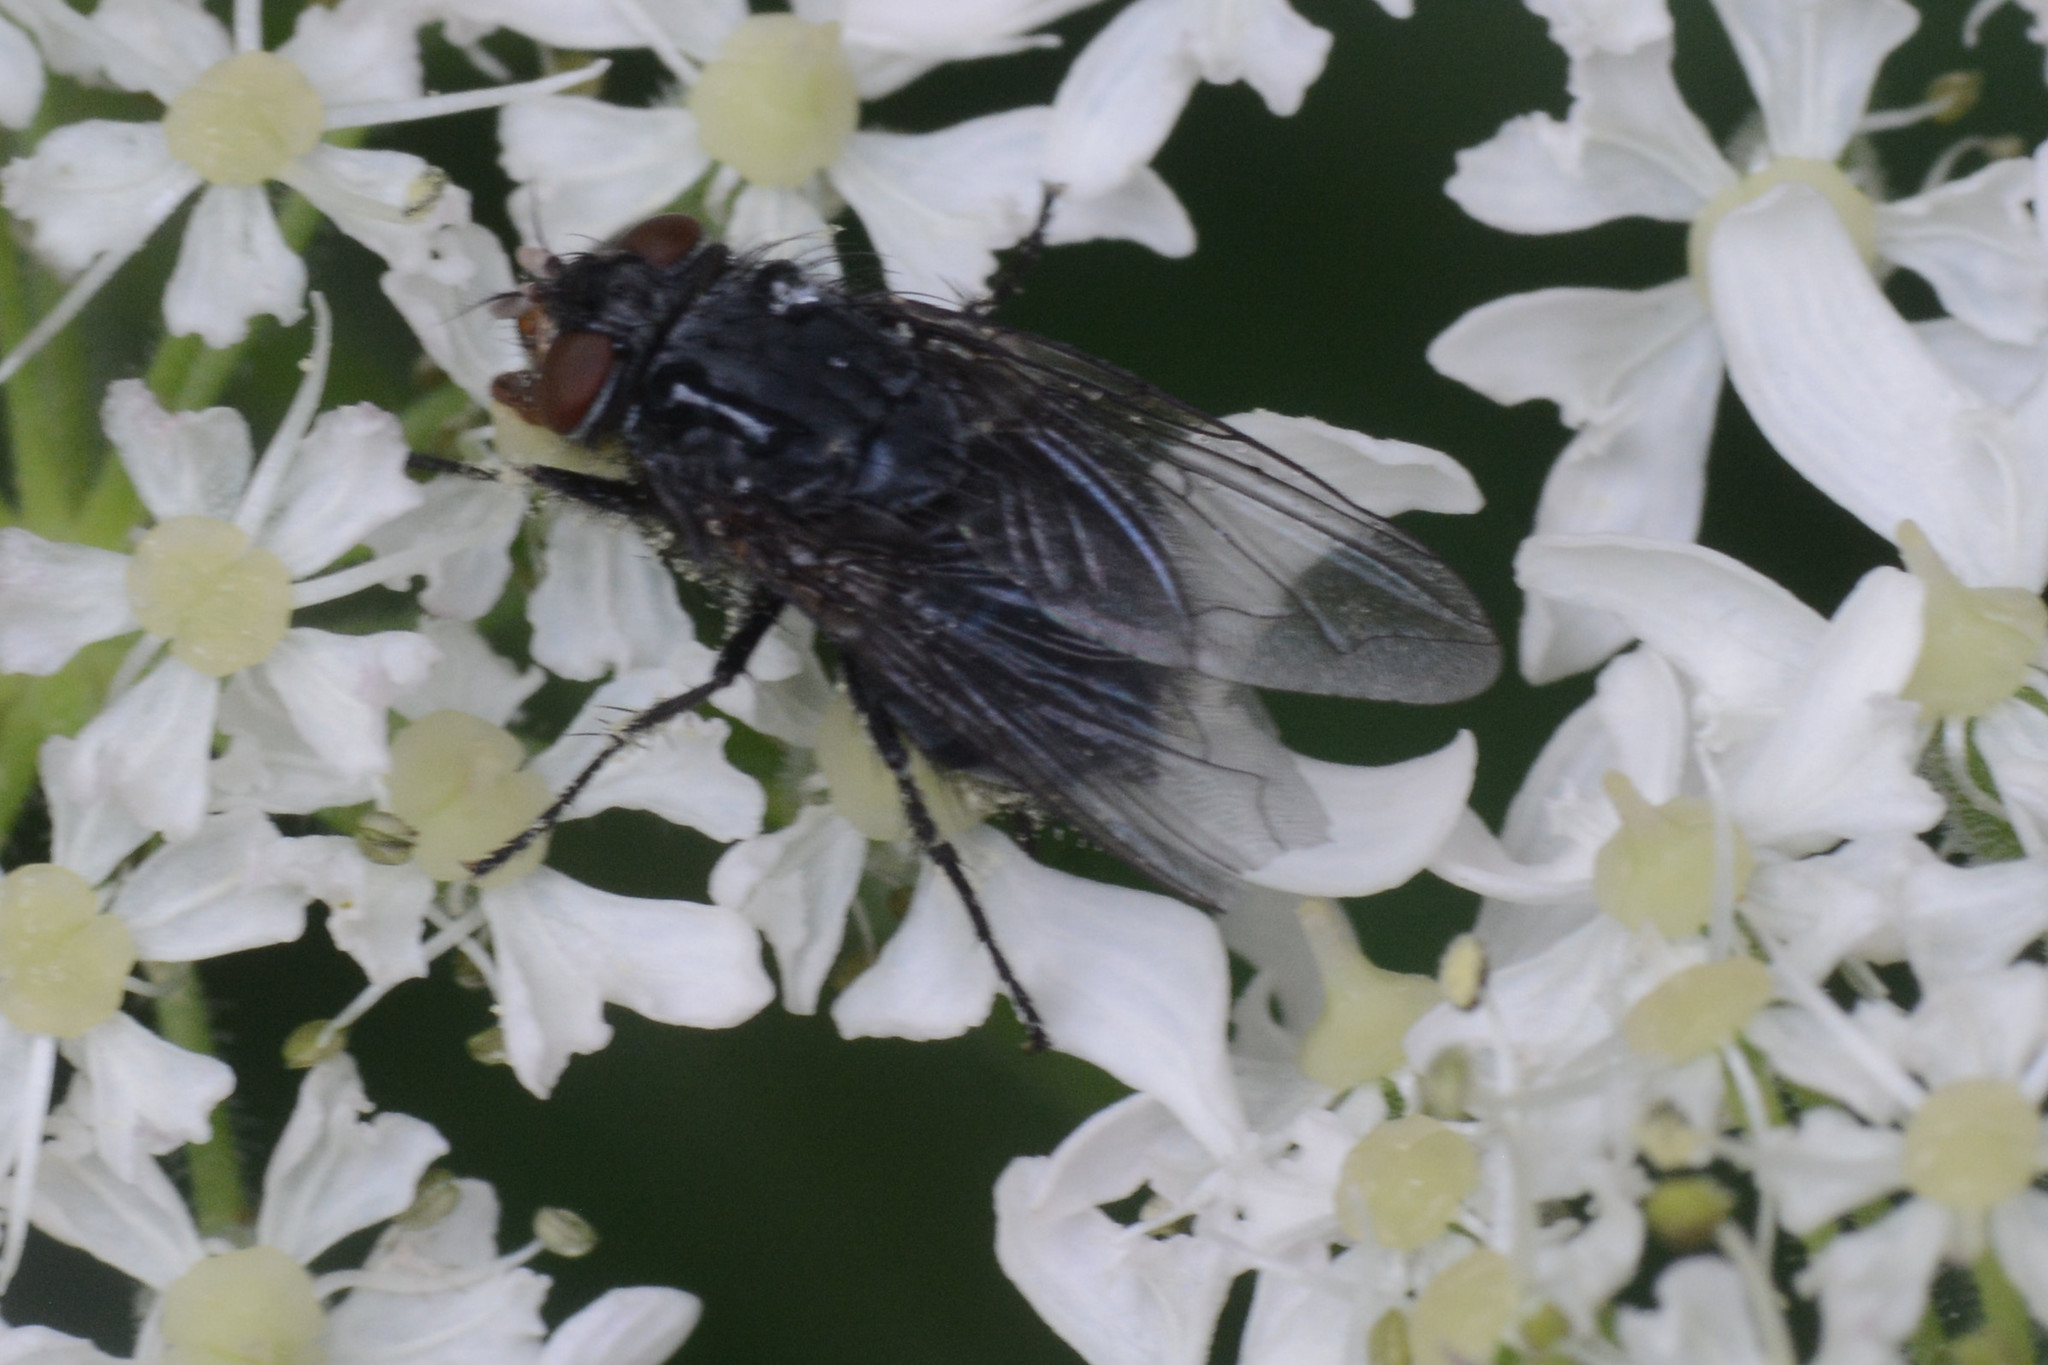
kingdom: Animalia
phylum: Arthropoda
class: Insecta
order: Diptera
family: Calliphoridae
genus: Calliphora
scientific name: Calliphora vicina
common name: Common blow flie
